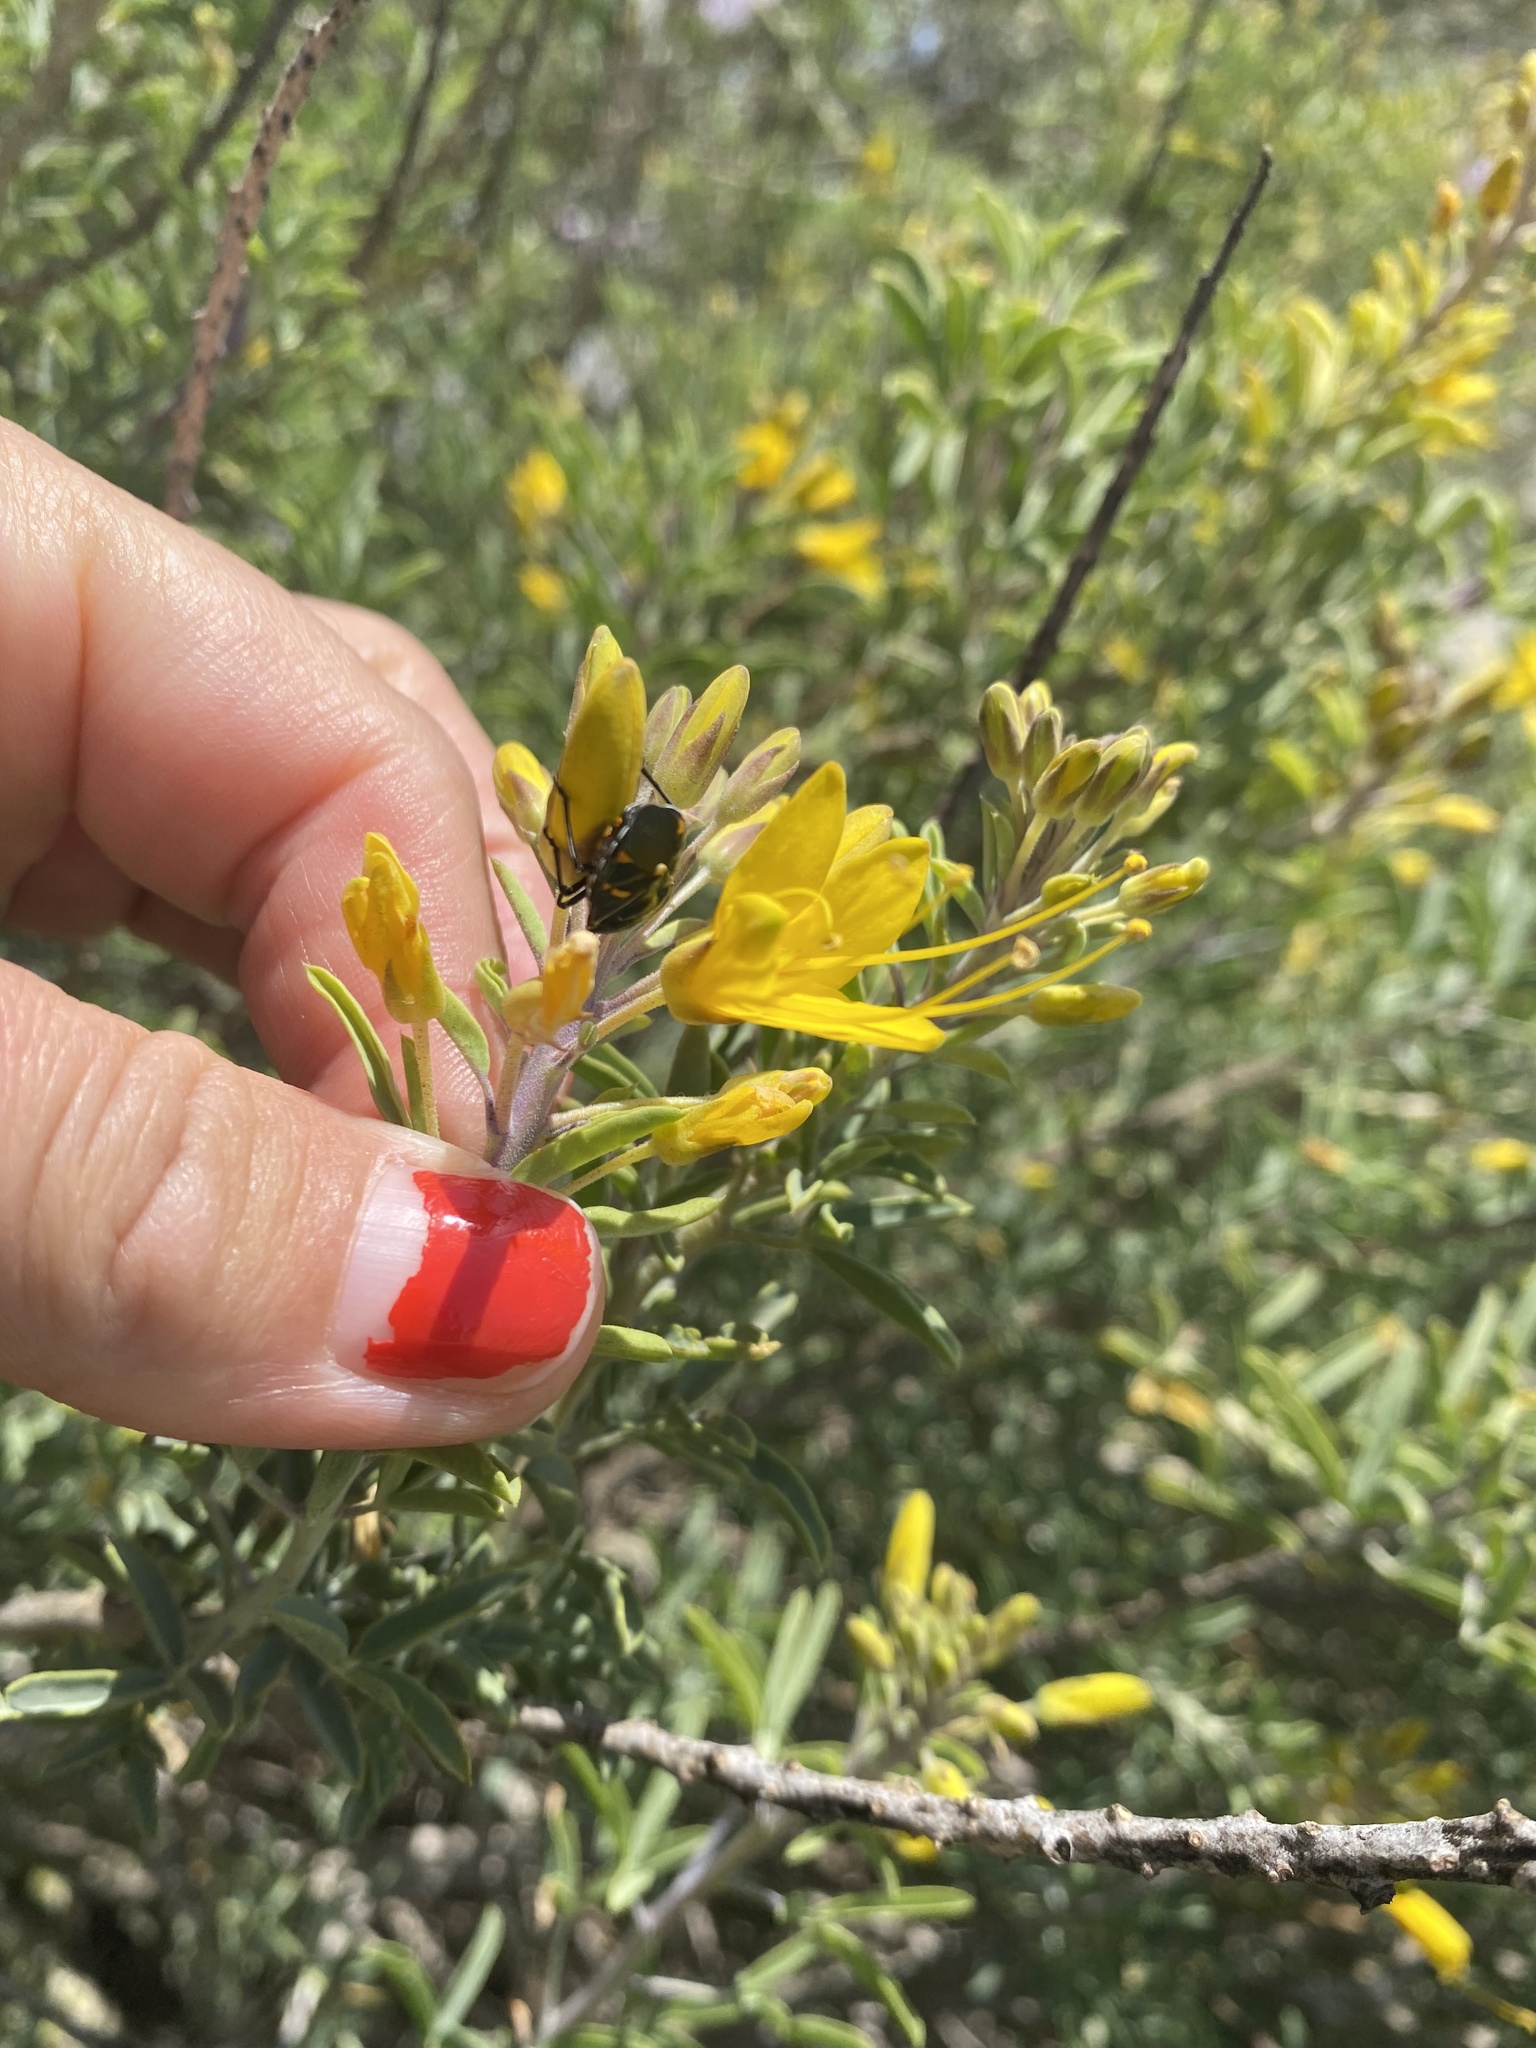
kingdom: Animalia
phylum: Arthropoda
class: Insecta
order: Hemiptera
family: Pentatomidae
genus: Murgantia
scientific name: Murgantia histrionica
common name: Harlequin bug
